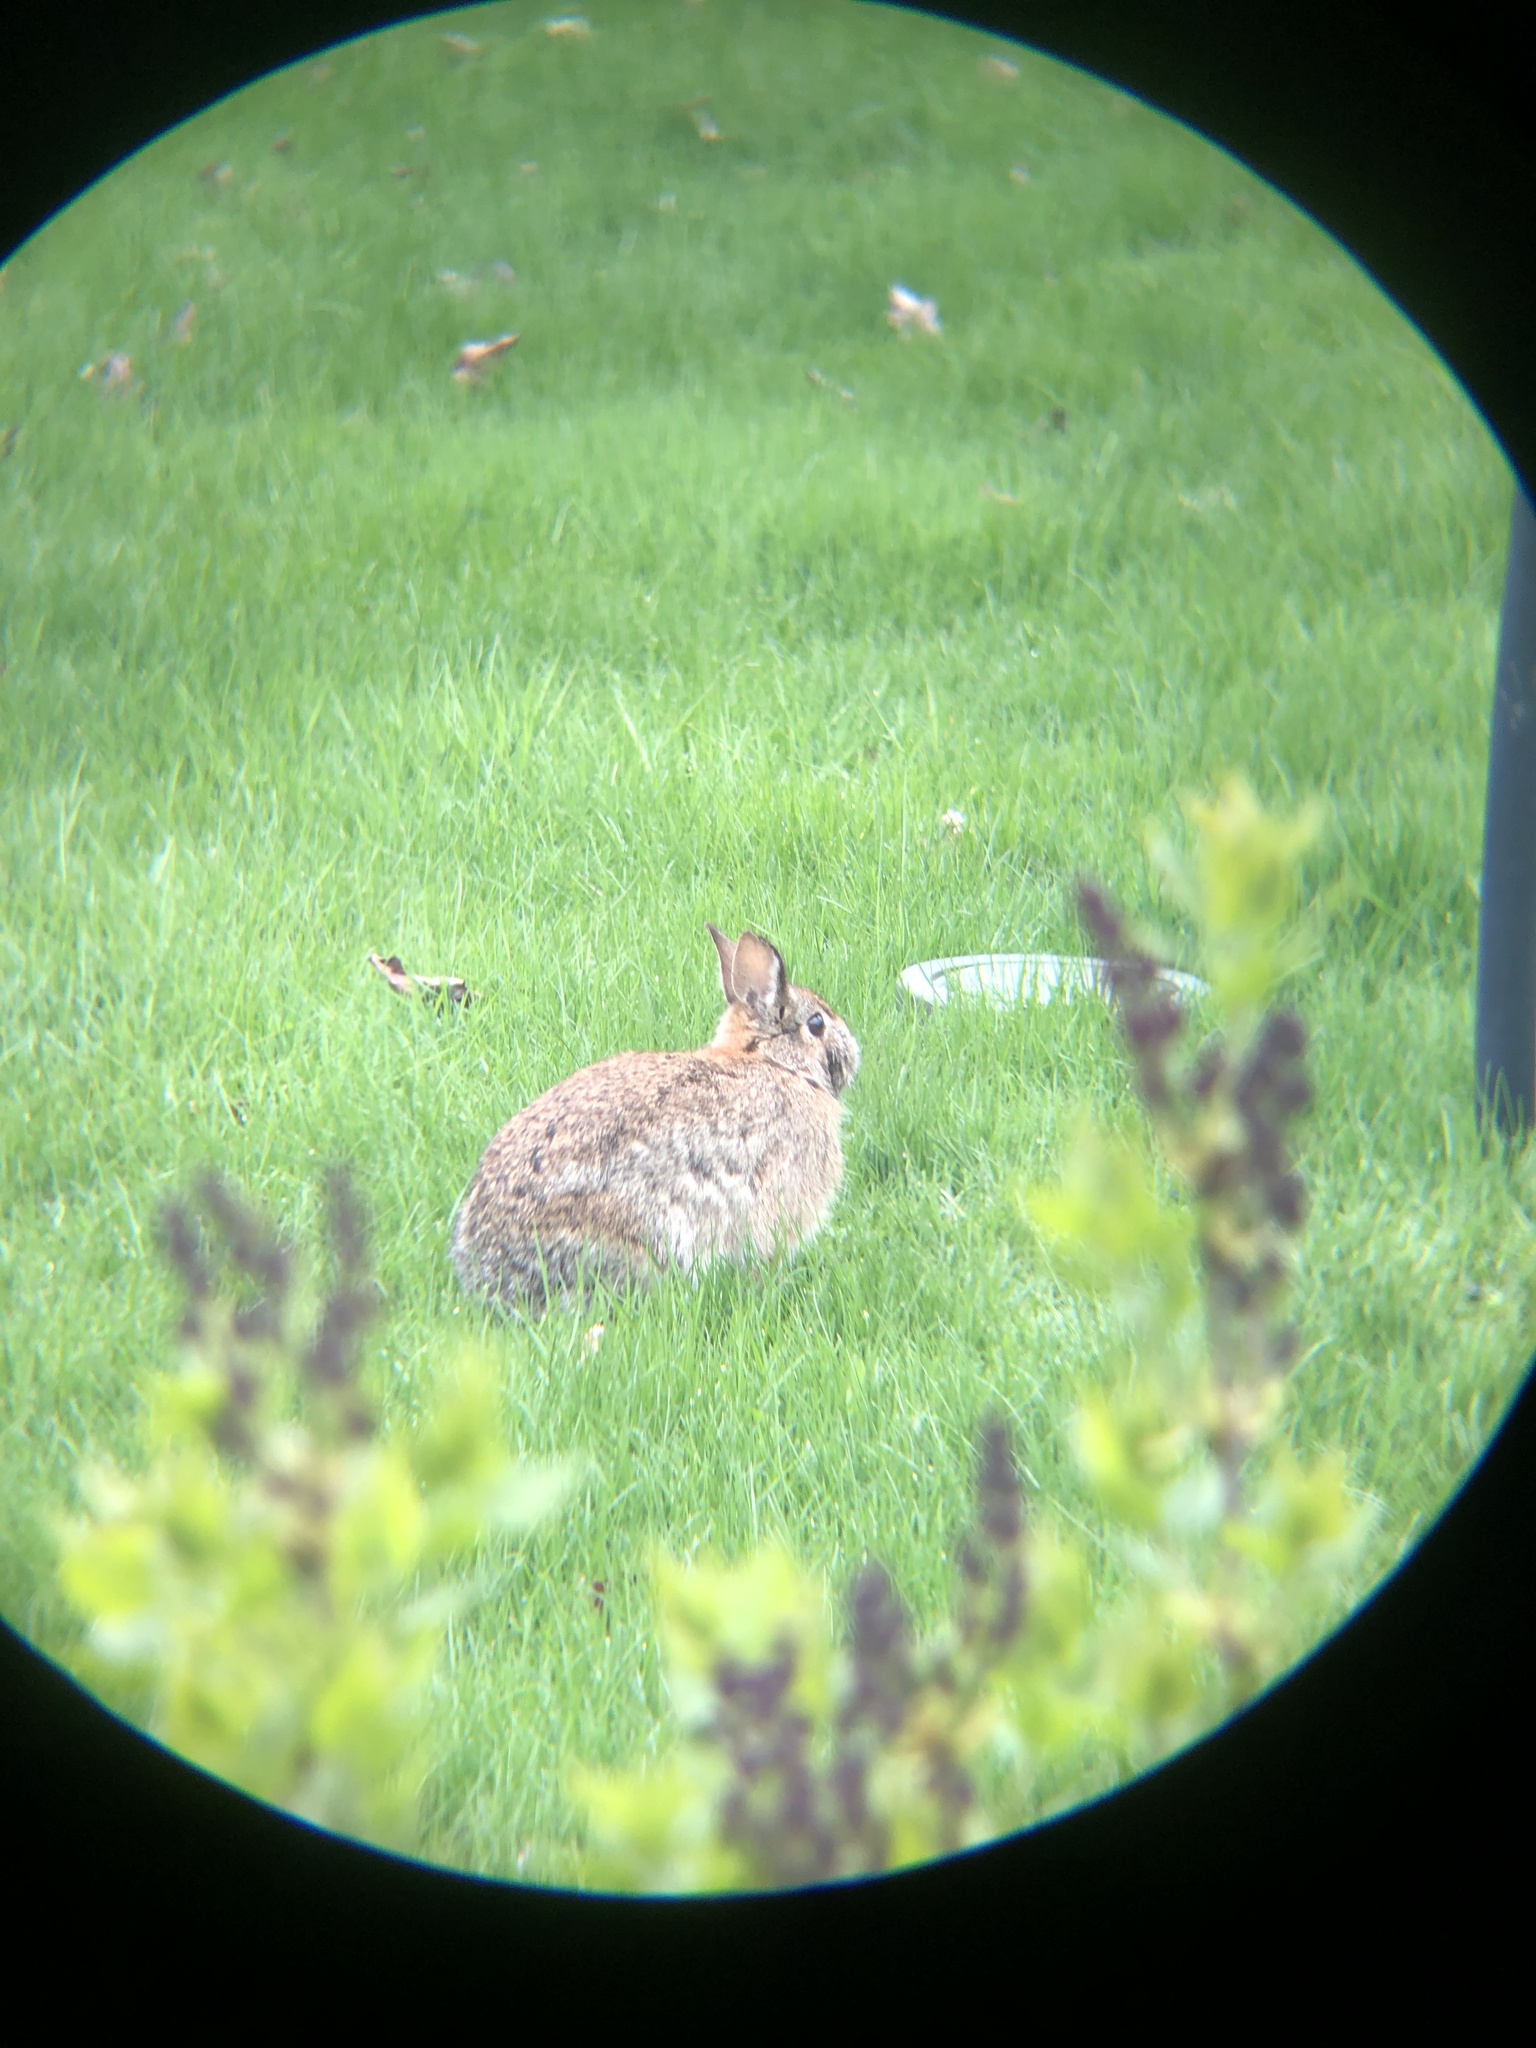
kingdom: Animalia
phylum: Chordata
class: Mammalia
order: Lagomorpha
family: Leporidae
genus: Sylvilagus
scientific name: Sylvilagus floridanus
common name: Eastern cottontail
